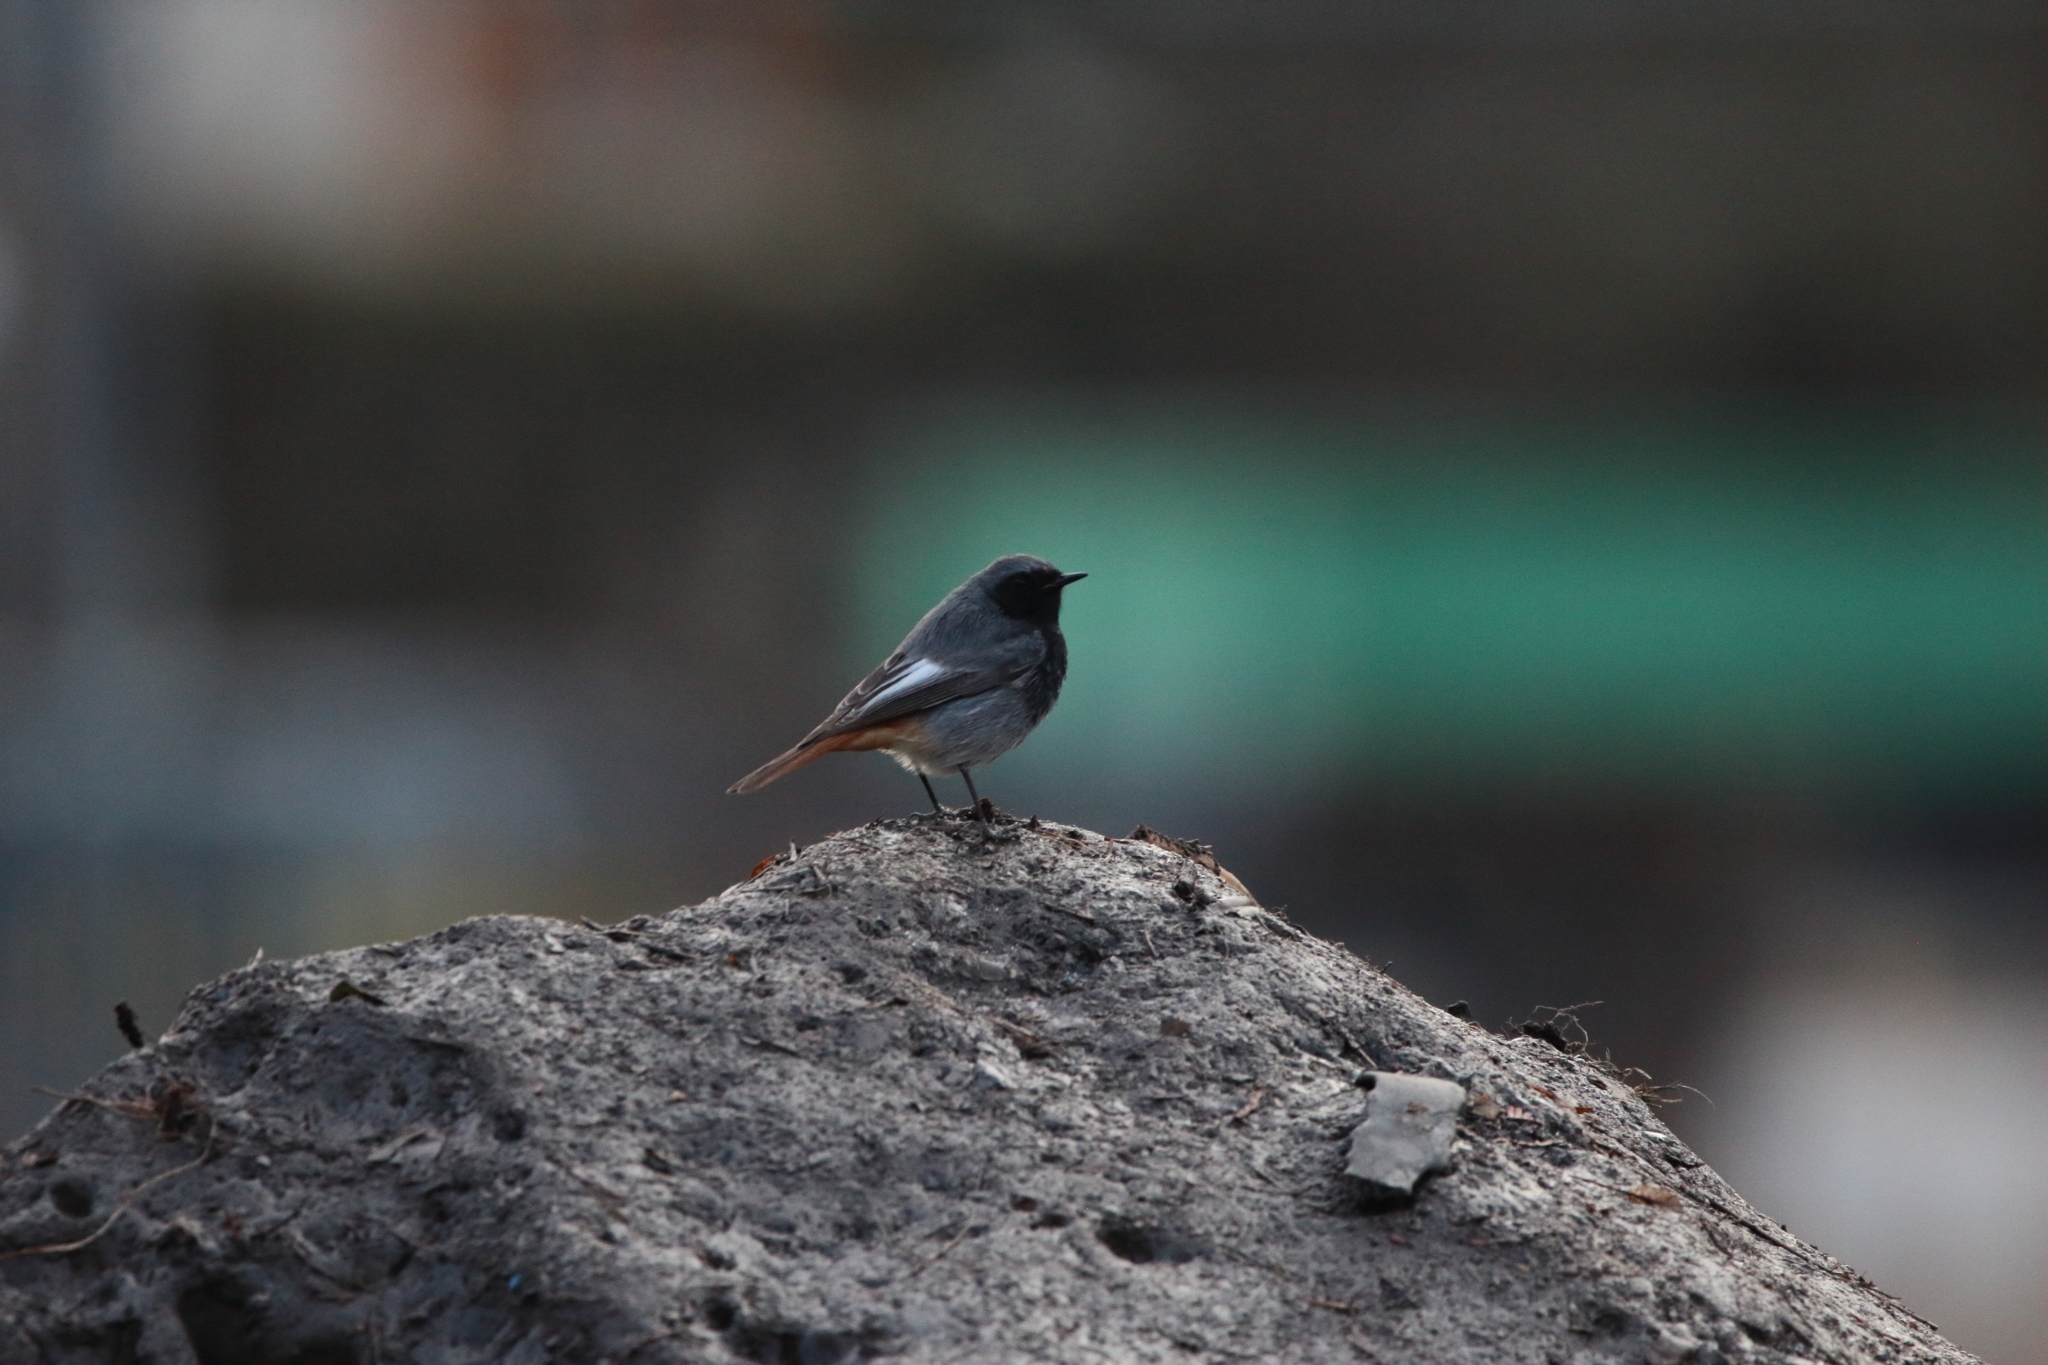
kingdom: Animalia
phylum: Chordata
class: Aves
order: Passeriformes
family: Muscicapidae
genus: Phoenicurus
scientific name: Phoenicurus ochruros
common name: Black redstart
